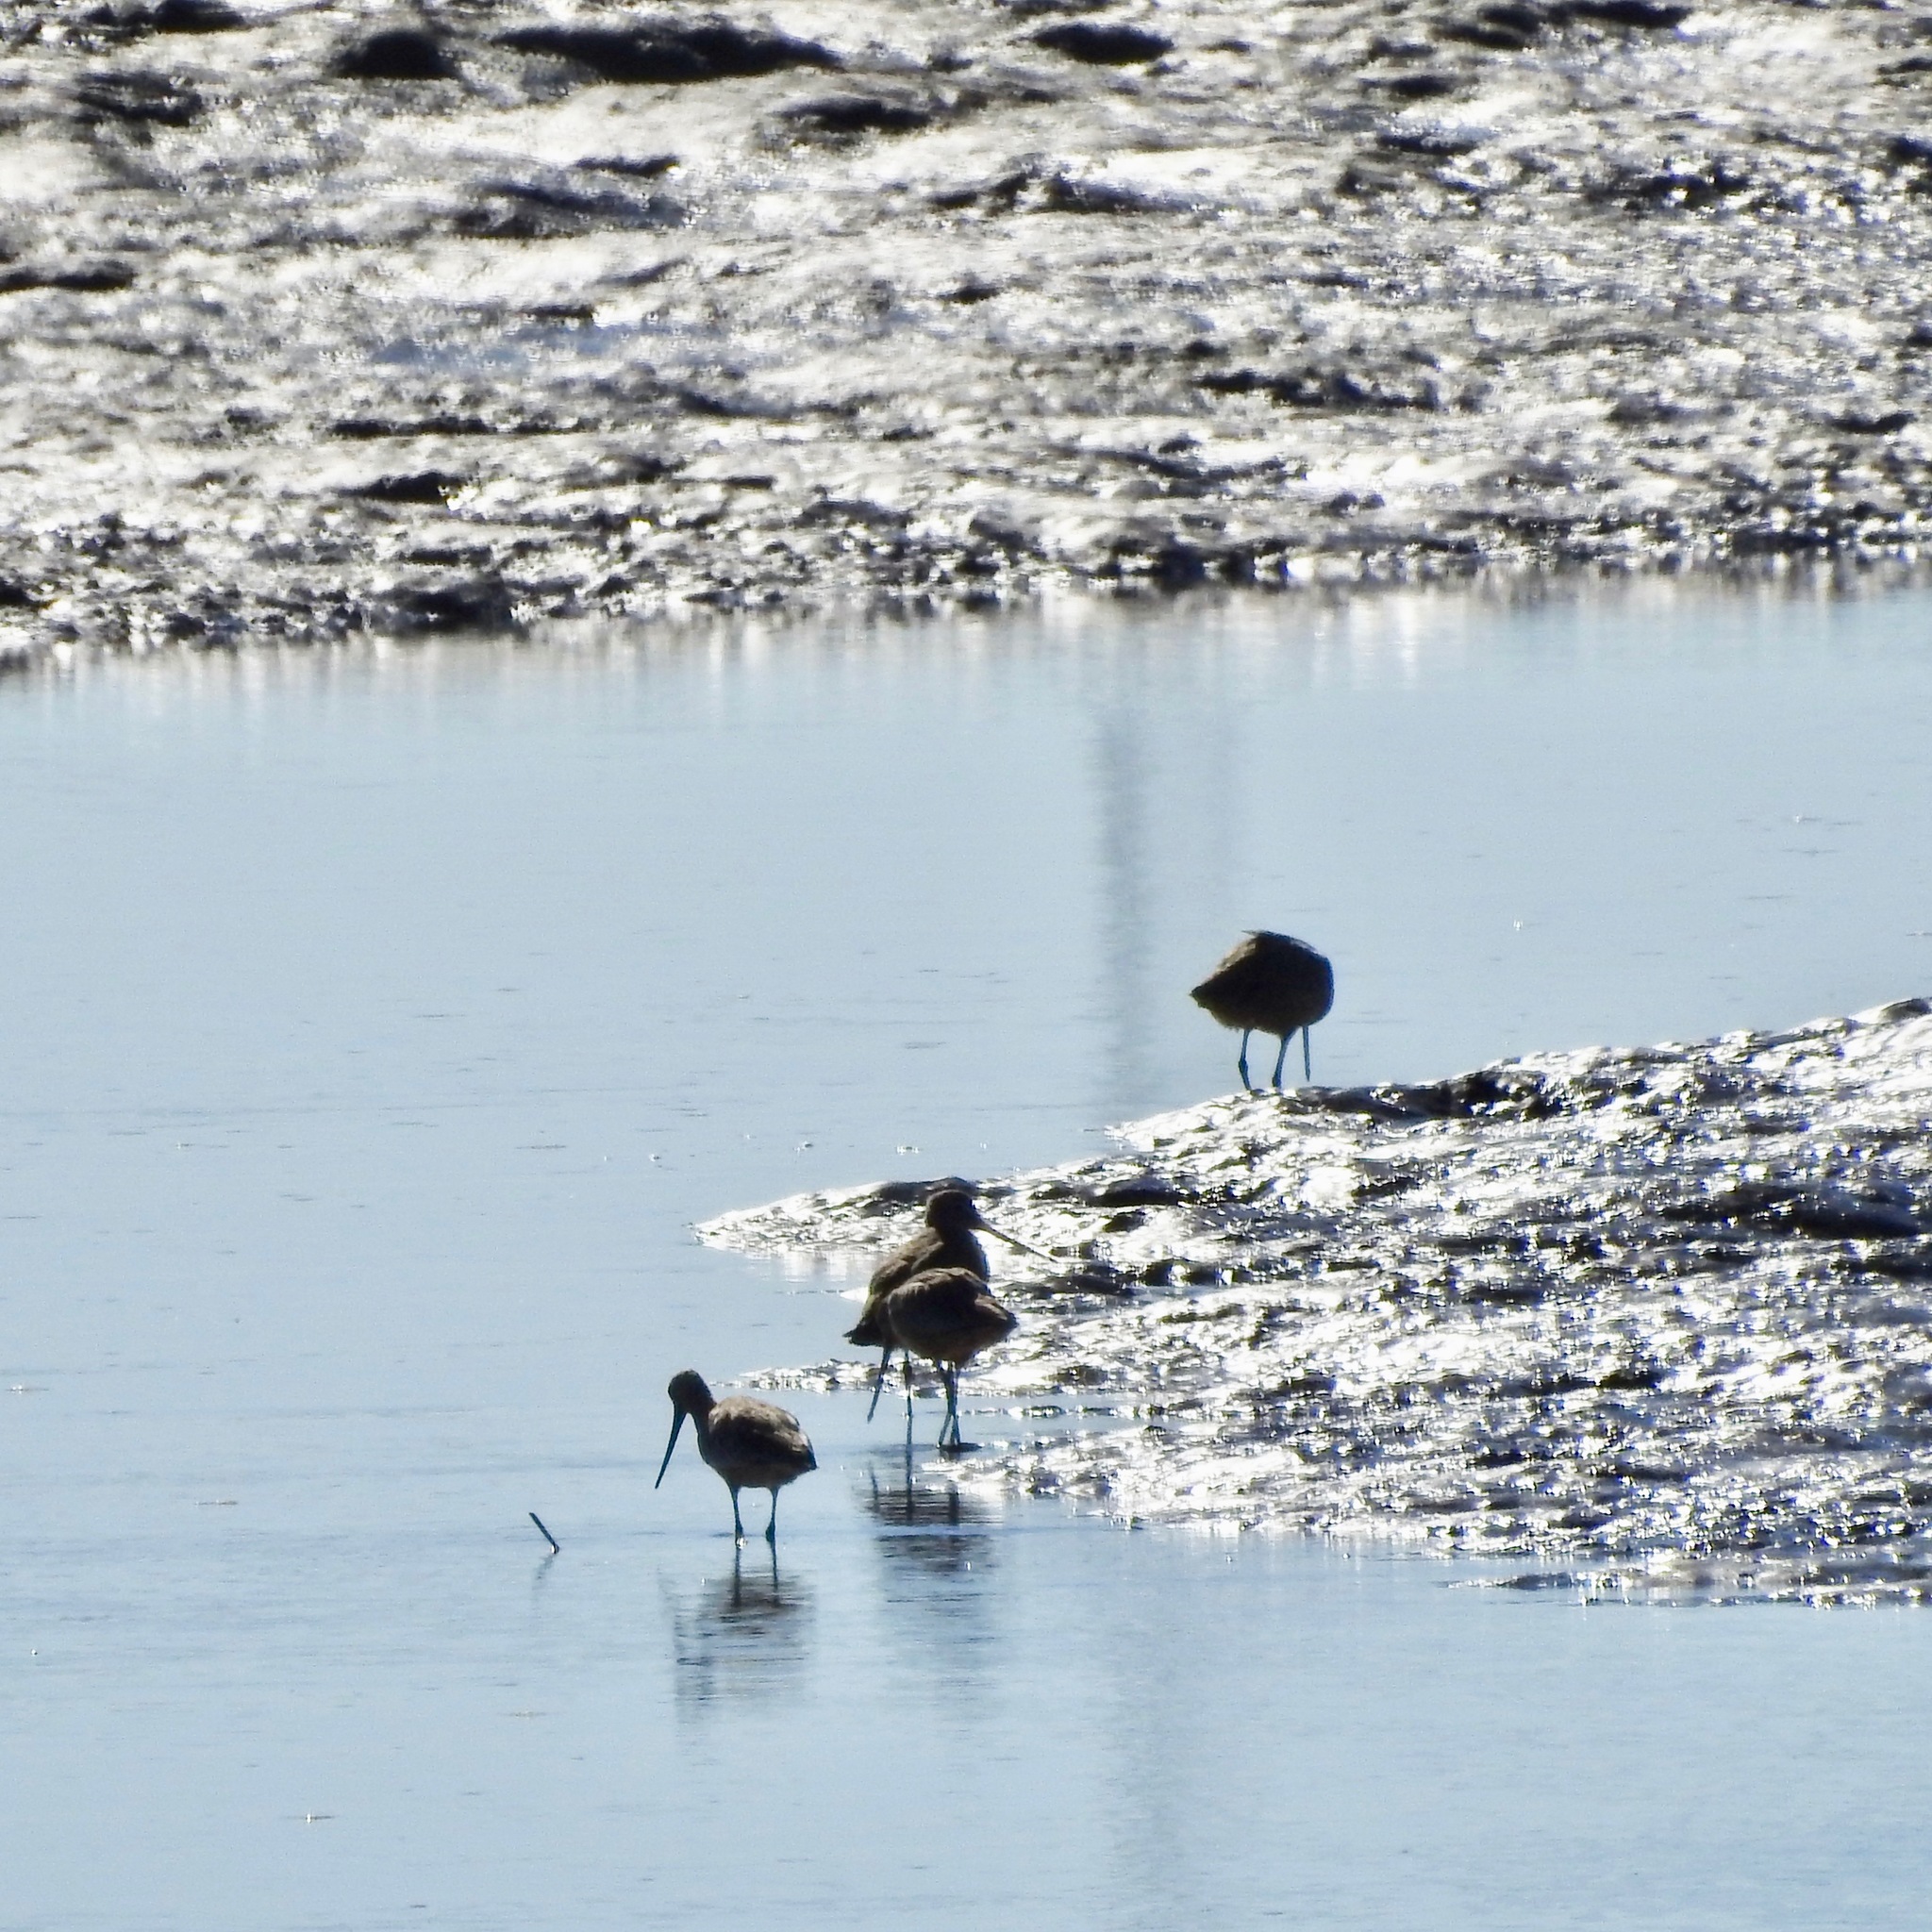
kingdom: Animalia
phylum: Chordata
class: Aves
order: Charadriiformes
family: Scolopacidae
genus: Limosa
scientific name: Limosa fedoa
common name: Marbled godwit
